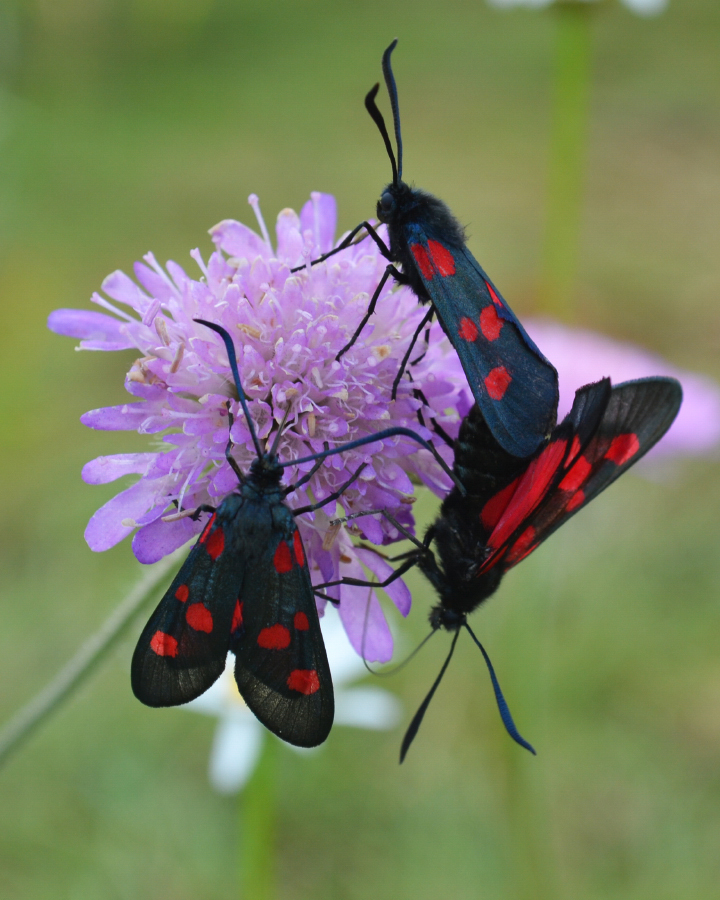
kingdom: Animalia
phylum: Arthropoda
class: Insecta
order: Lepidoptera
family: Zygaenidae
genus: Zygaena
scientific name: Zygaena lonicerae
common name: Narrow-bordered five-spot burnet
